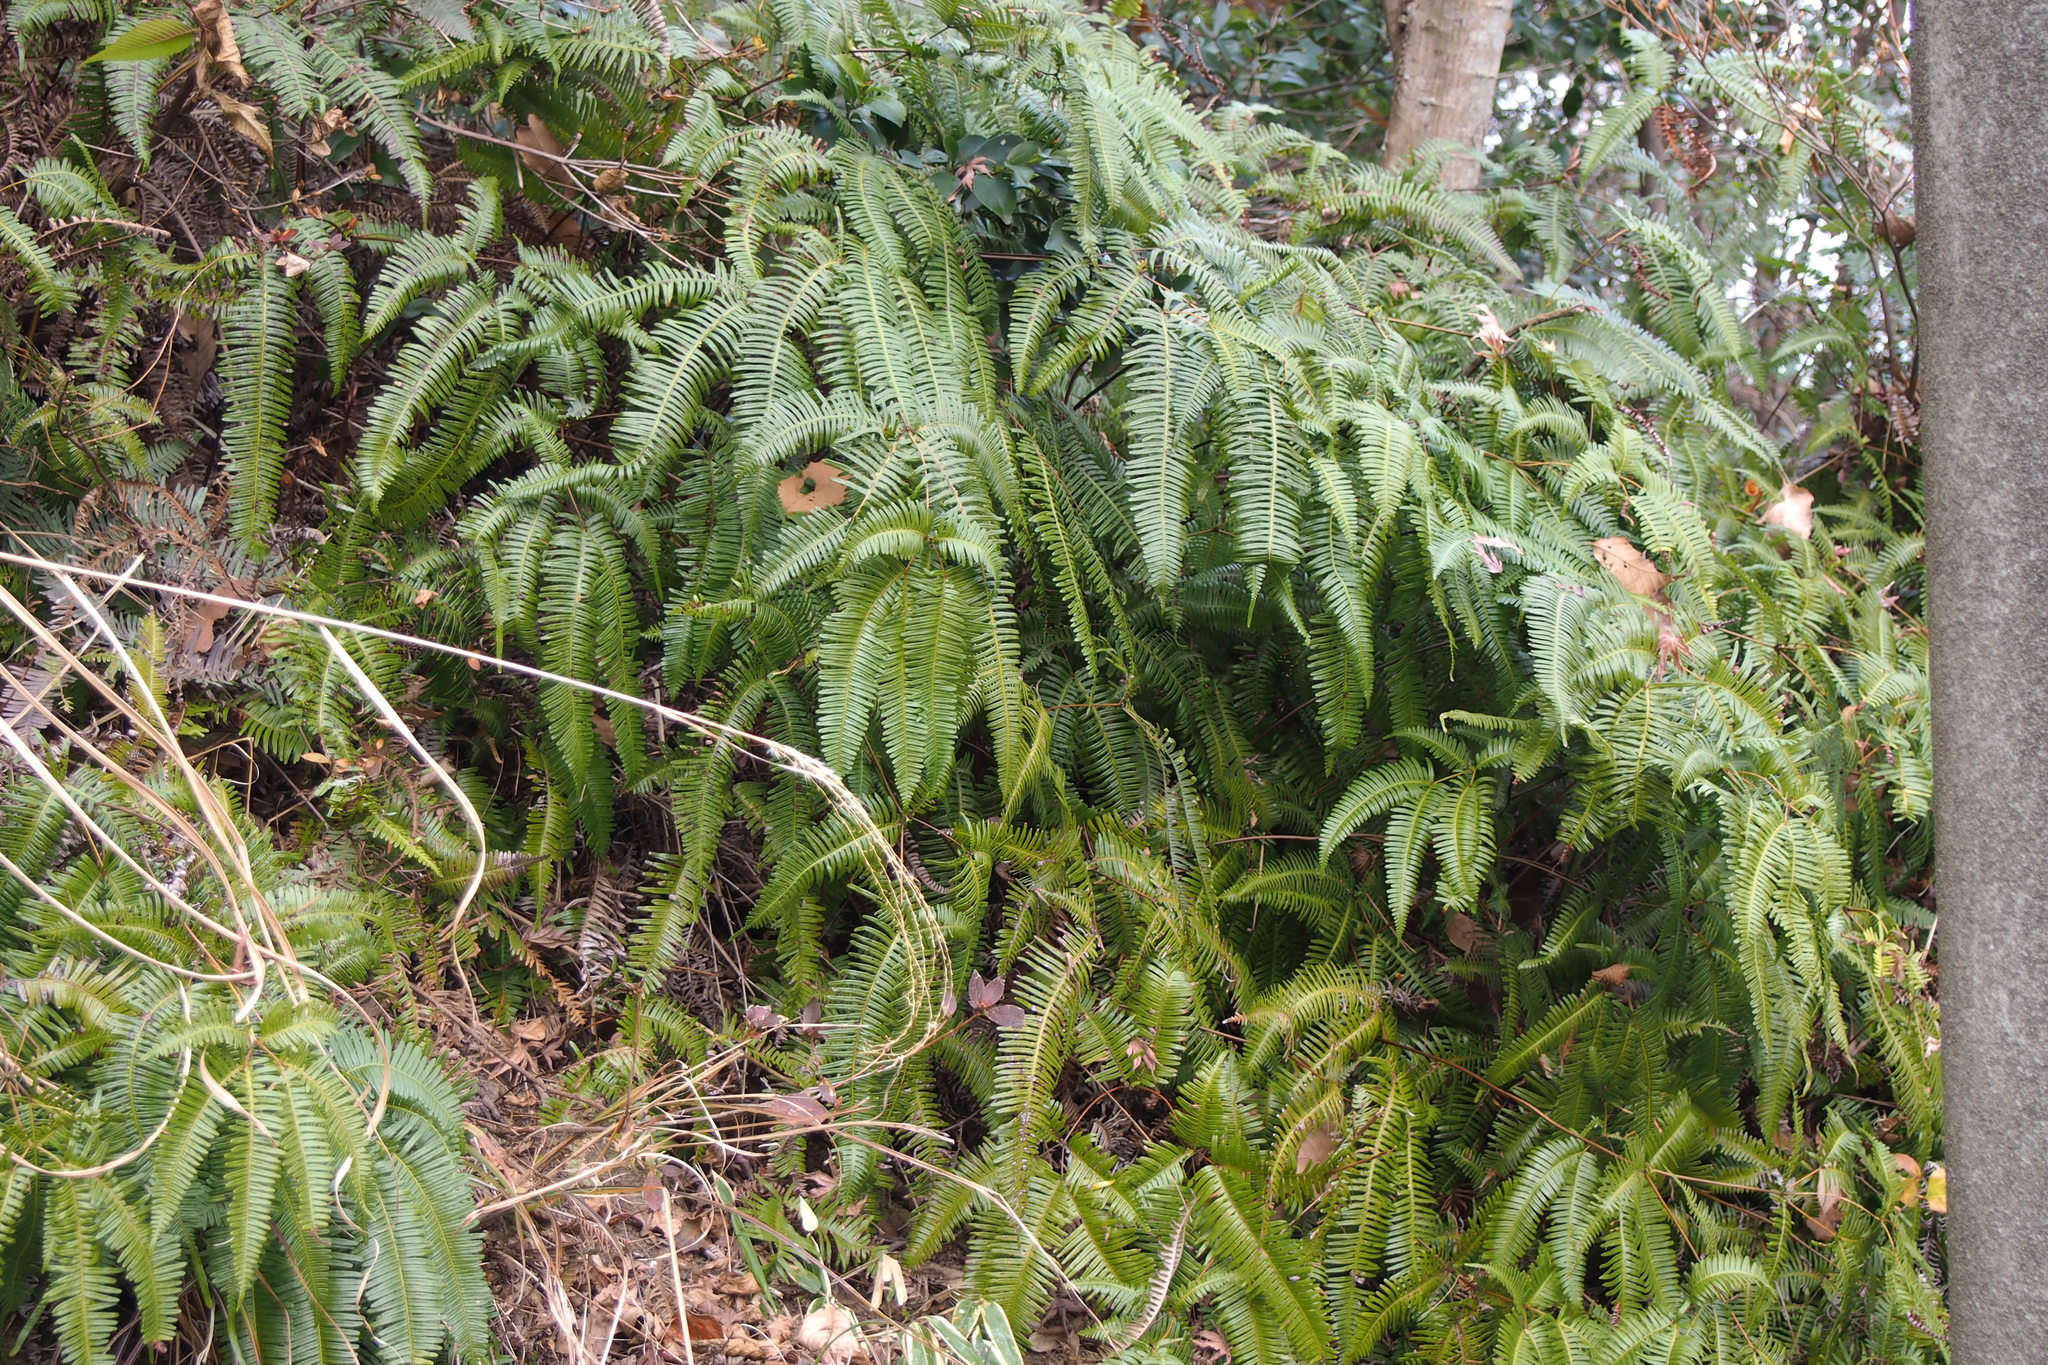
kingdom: Plantae
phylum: Tracheophyta
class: Polypodiopsida
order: Gleicheniales
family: Gleicheniaceae
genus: Dicranopteris
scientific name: Dicranopteris linearis
